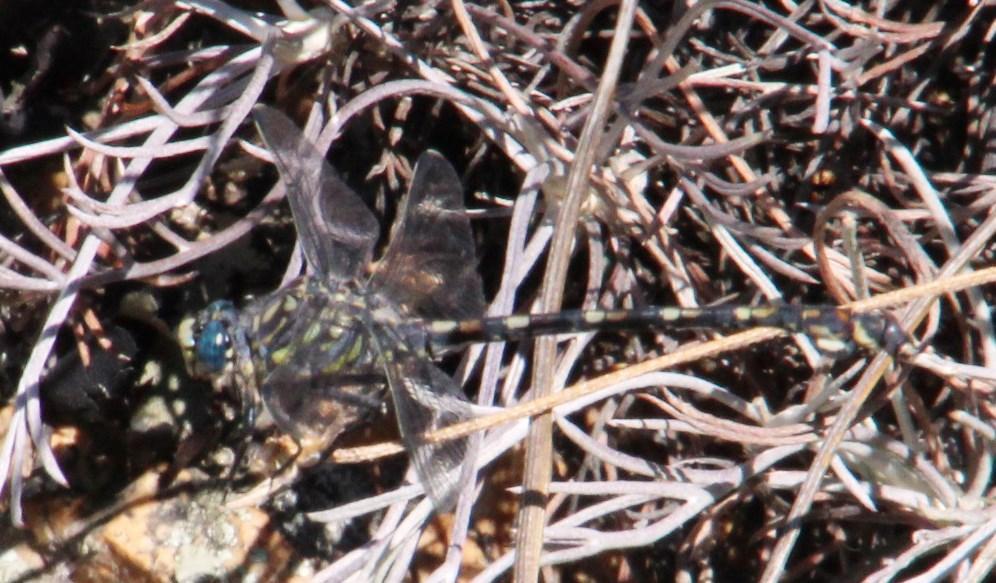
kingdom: Animalia
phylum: Arthropoda
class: Insecta
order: Odonata
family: Gomphidae
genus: Ceratogomphus
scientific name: Ceratogomphus triceraticus
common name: Cape thorntail
